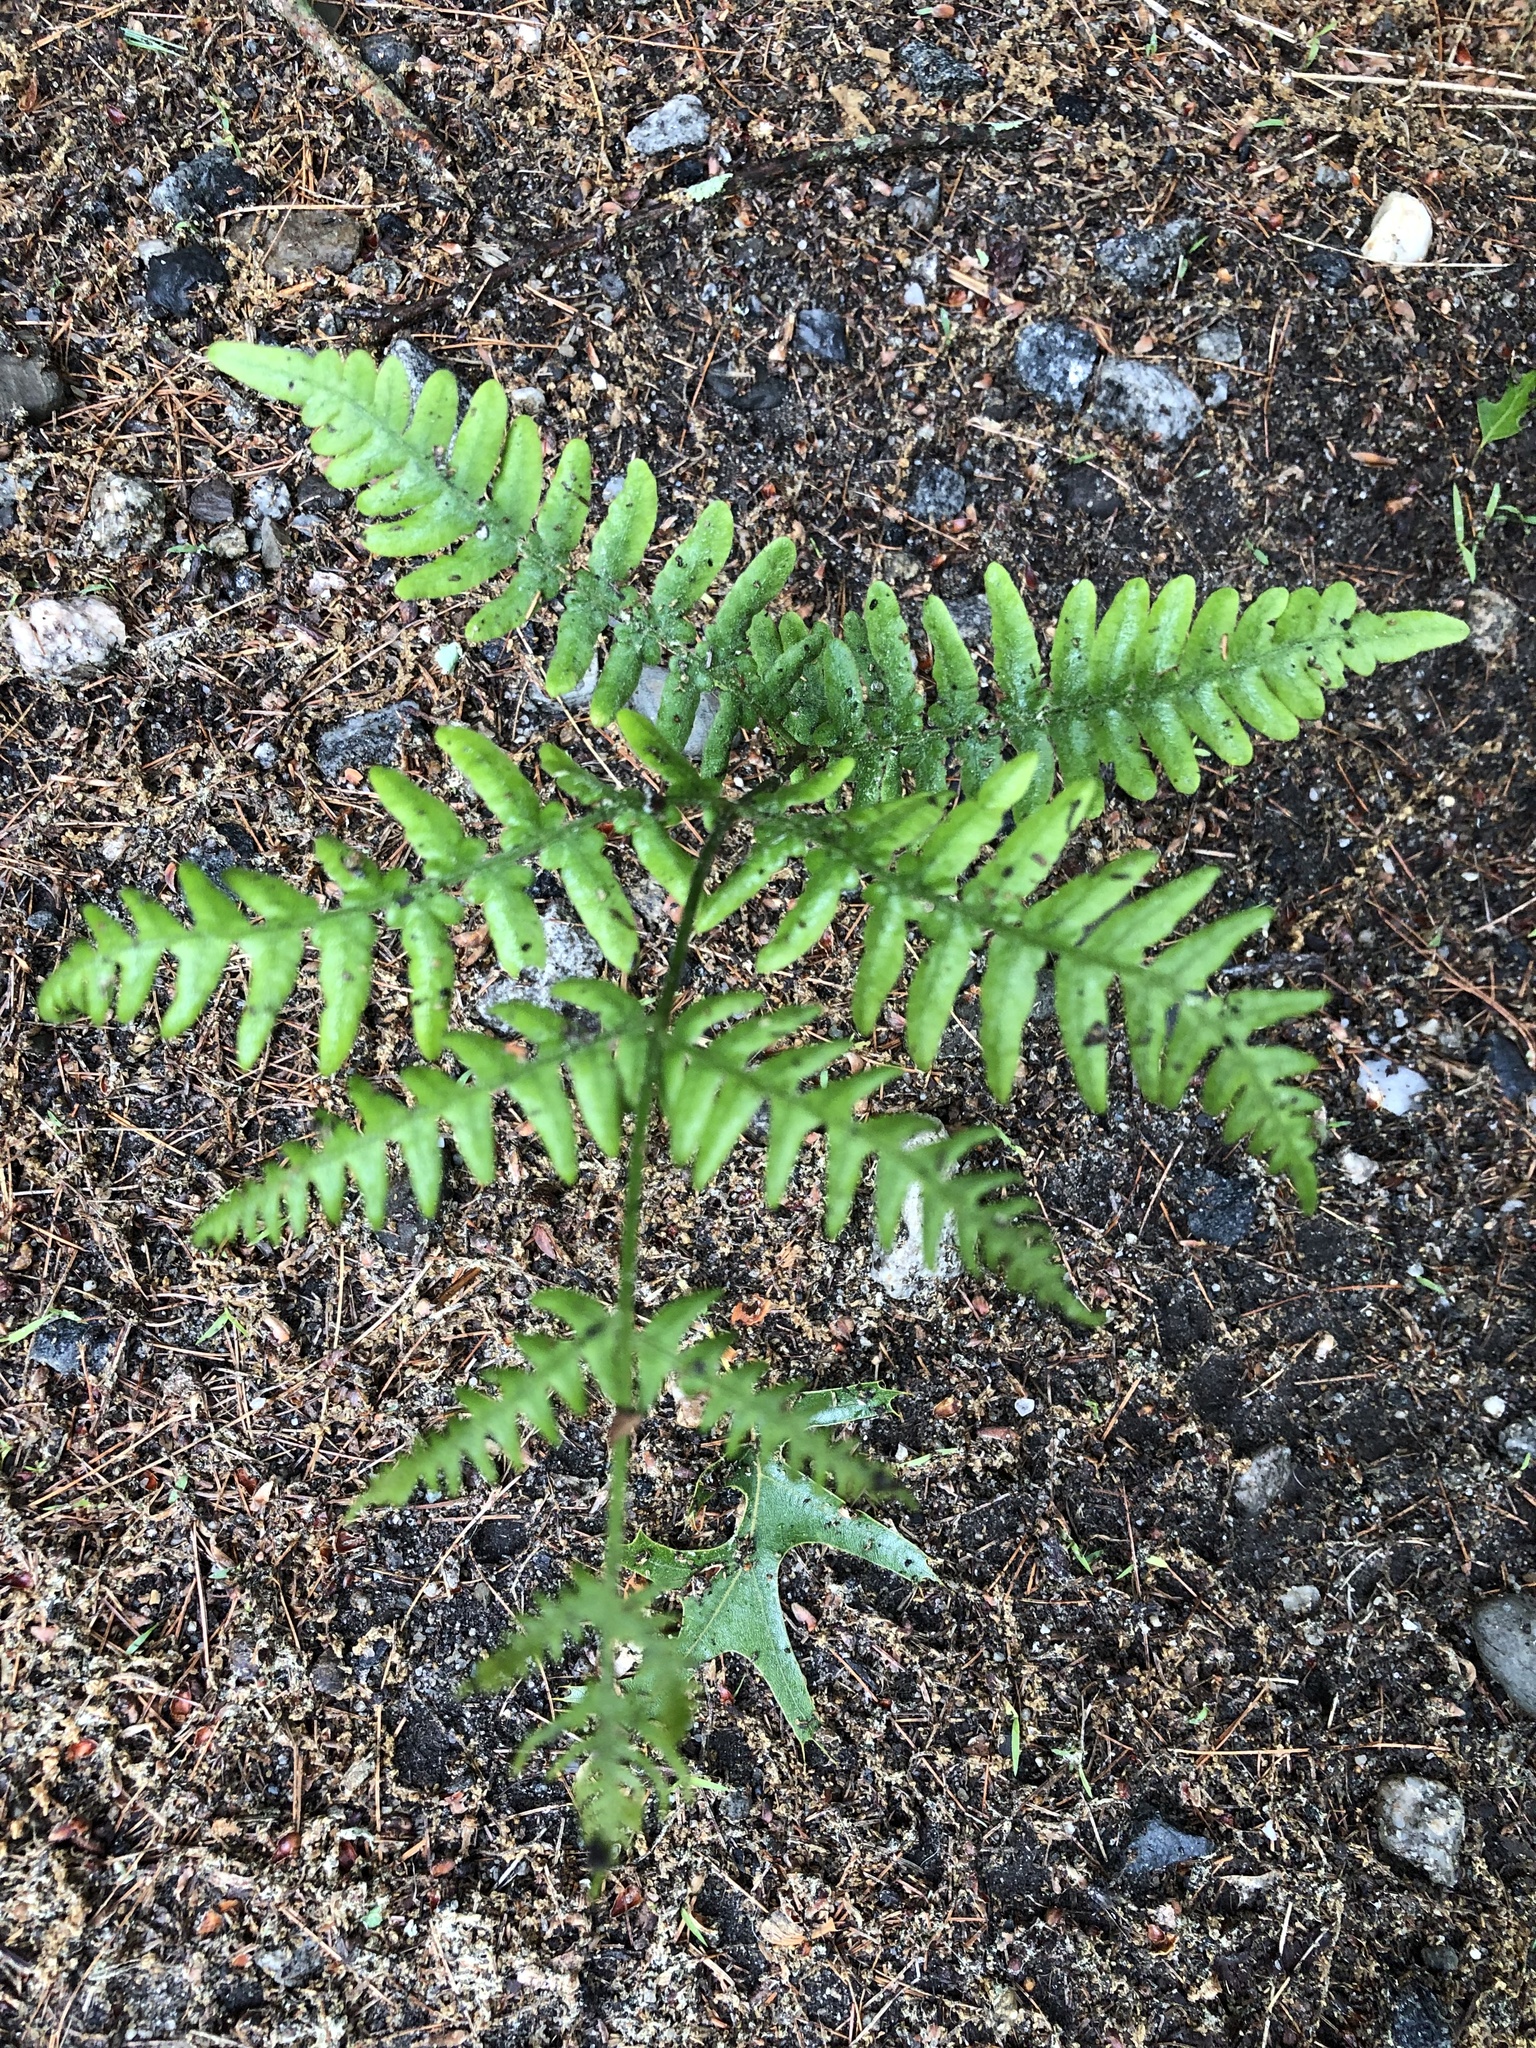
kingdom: Plantae
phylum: Tracheophyta
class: Polypodiopsida
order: Polypodiales
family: Dennstaedtiaceae
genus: Pteridium
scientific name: Pteridium aquilinum
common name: Bracken
